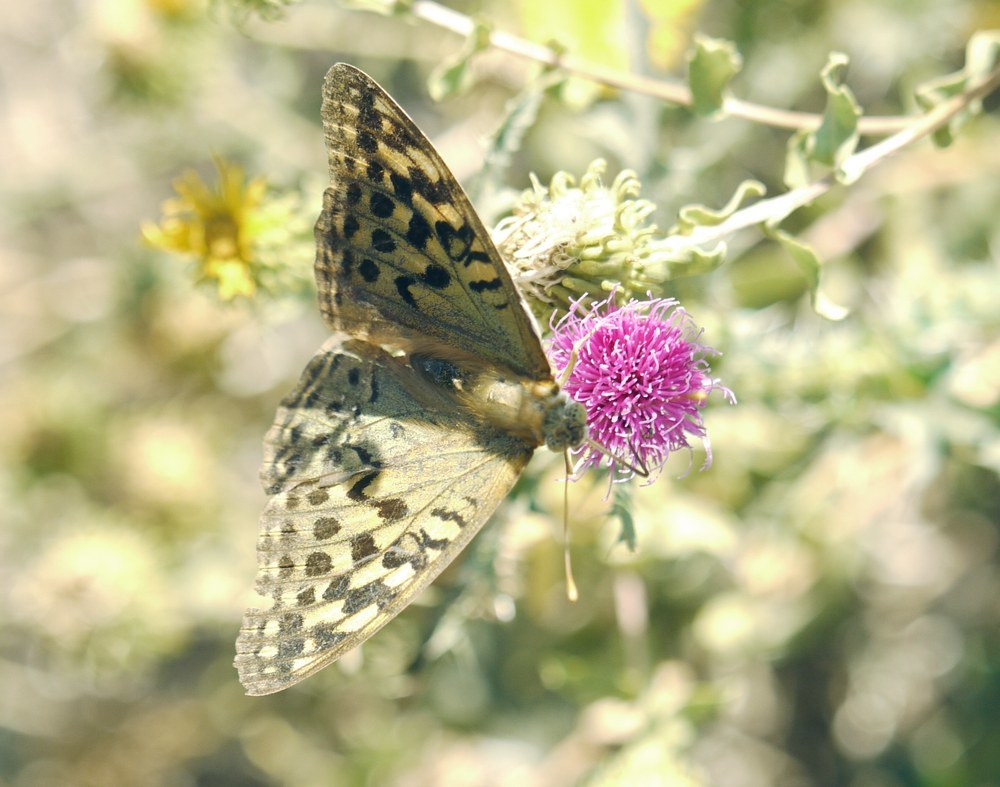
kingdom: Animalia
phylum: Arthropoda
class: Insecta
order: Lepidoptera
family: Nymphalidae
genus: Damora
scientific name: Damora pandora
